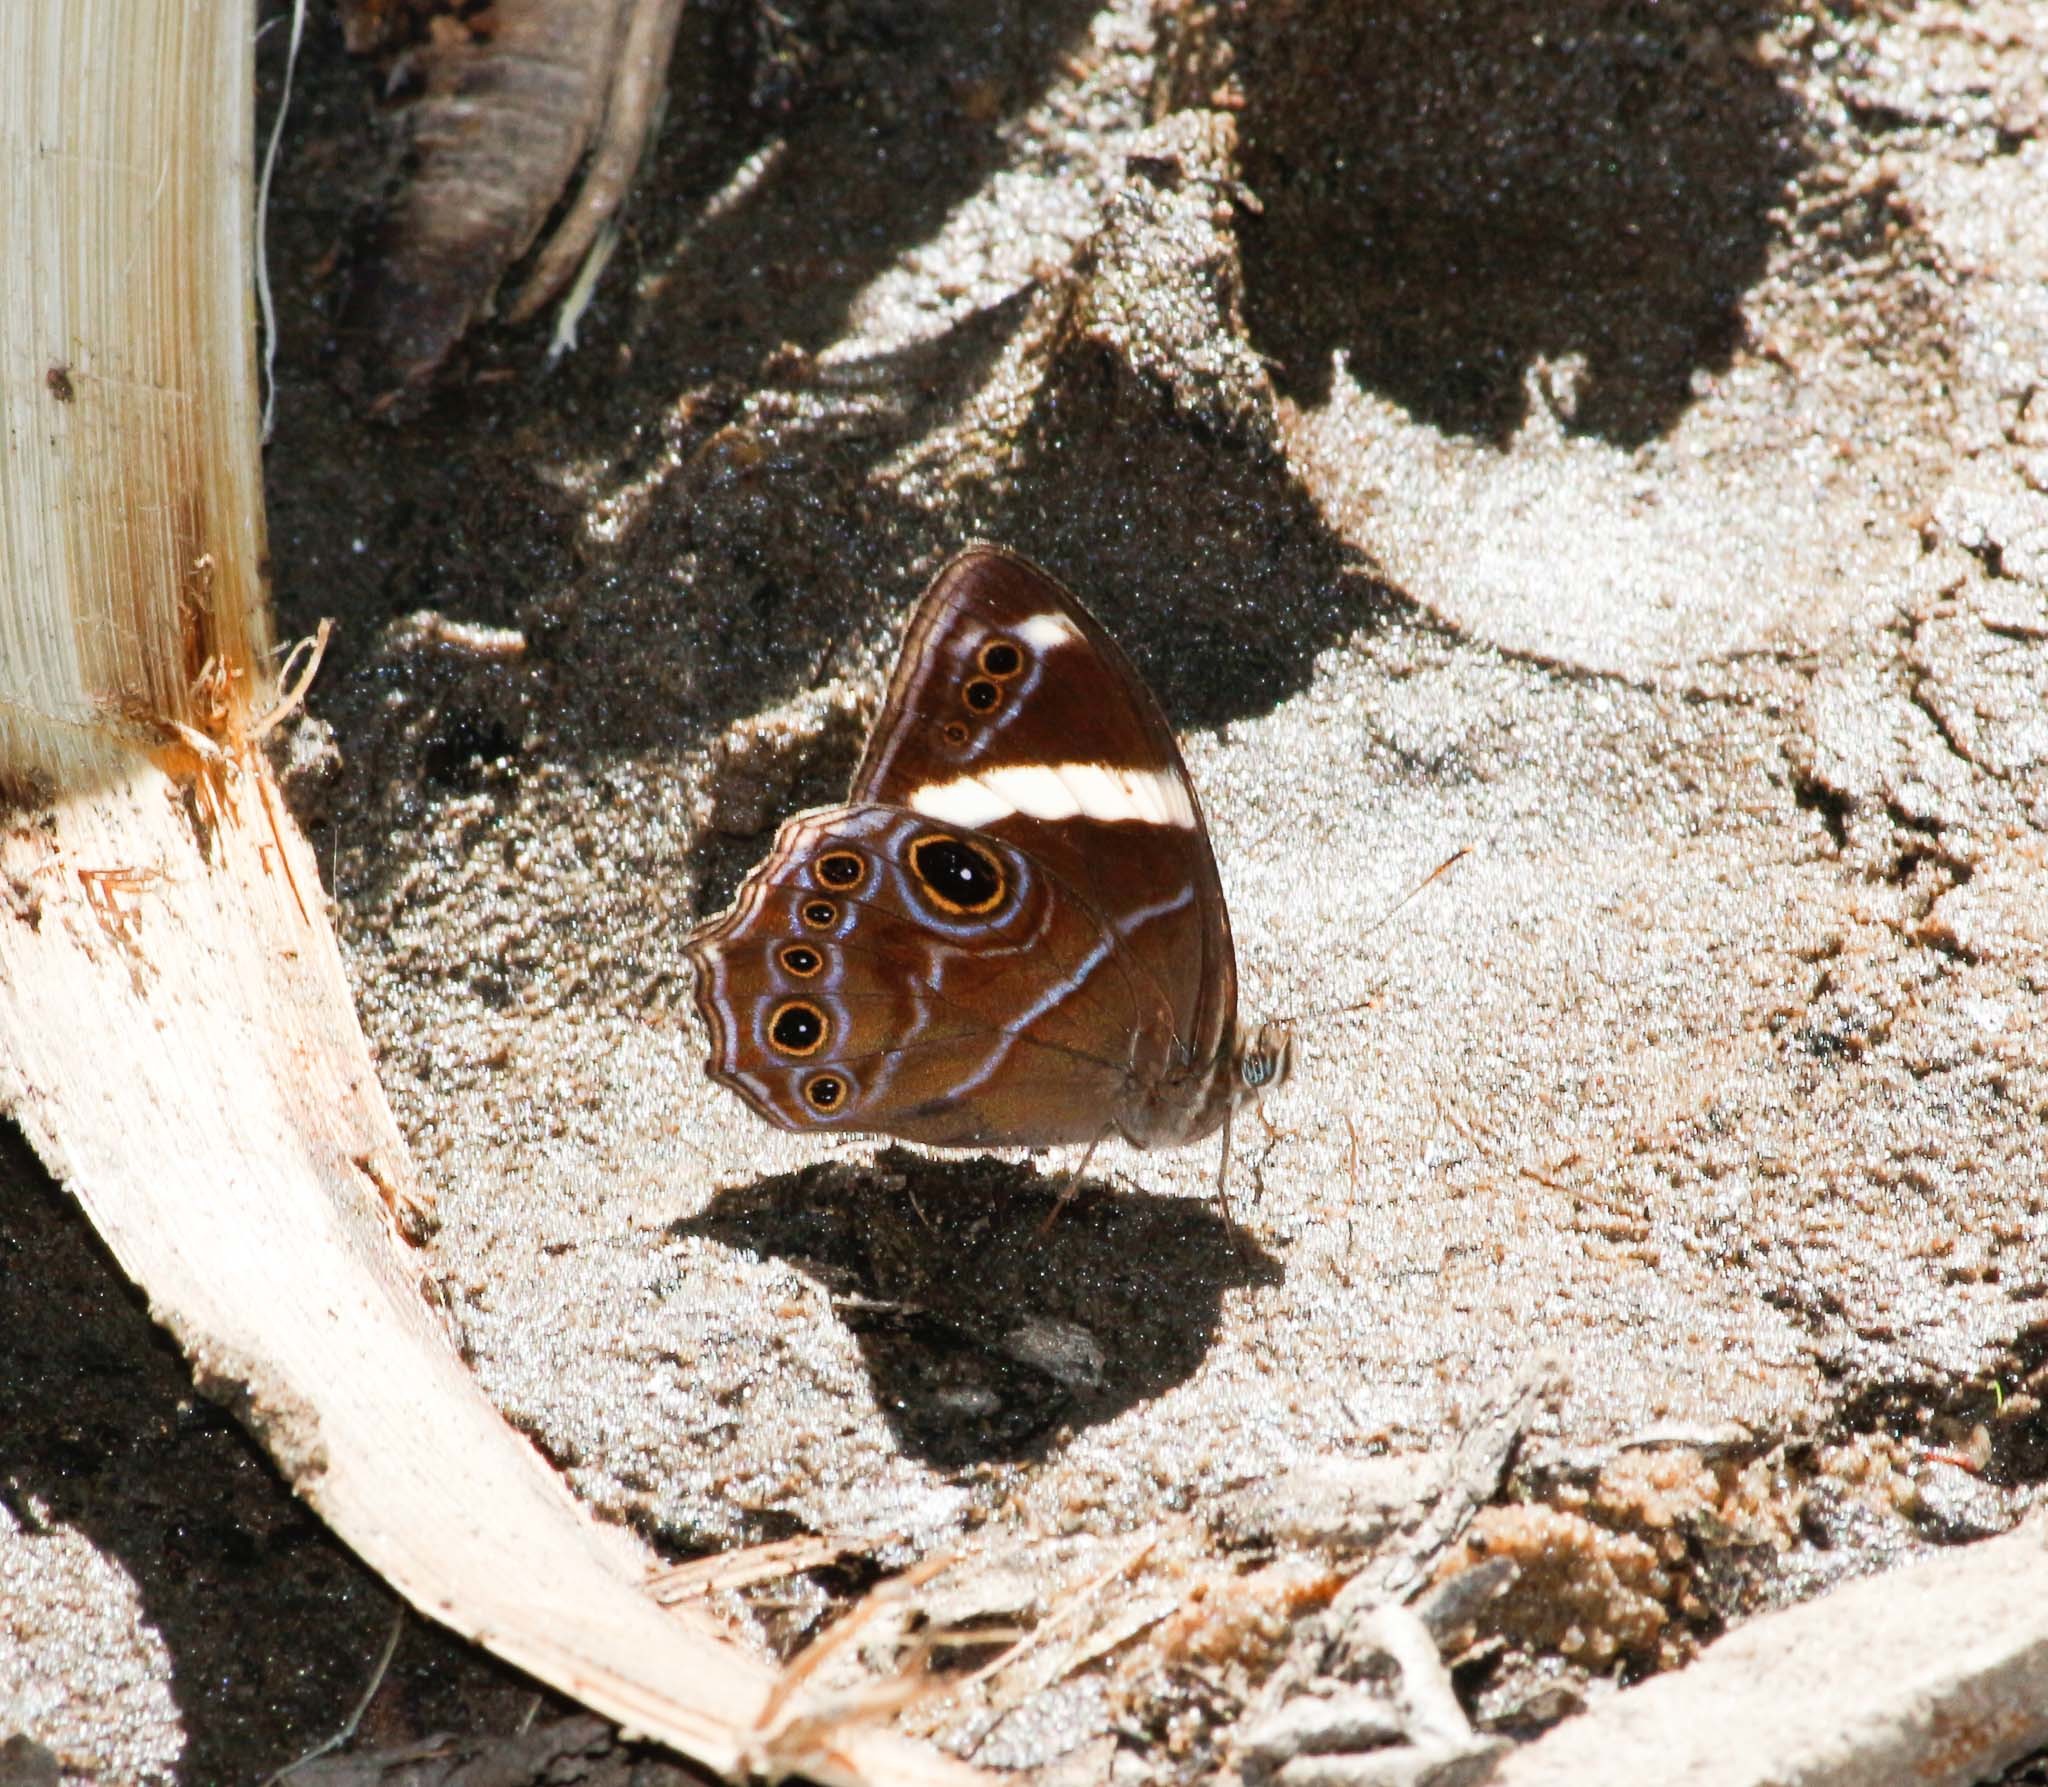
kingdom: Animalia
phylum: Arthropoda
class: Insecta
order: Lepidoptera
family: Nymphalidae
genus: Lethe
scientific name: Lethe confusa
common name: Banded treebrown
